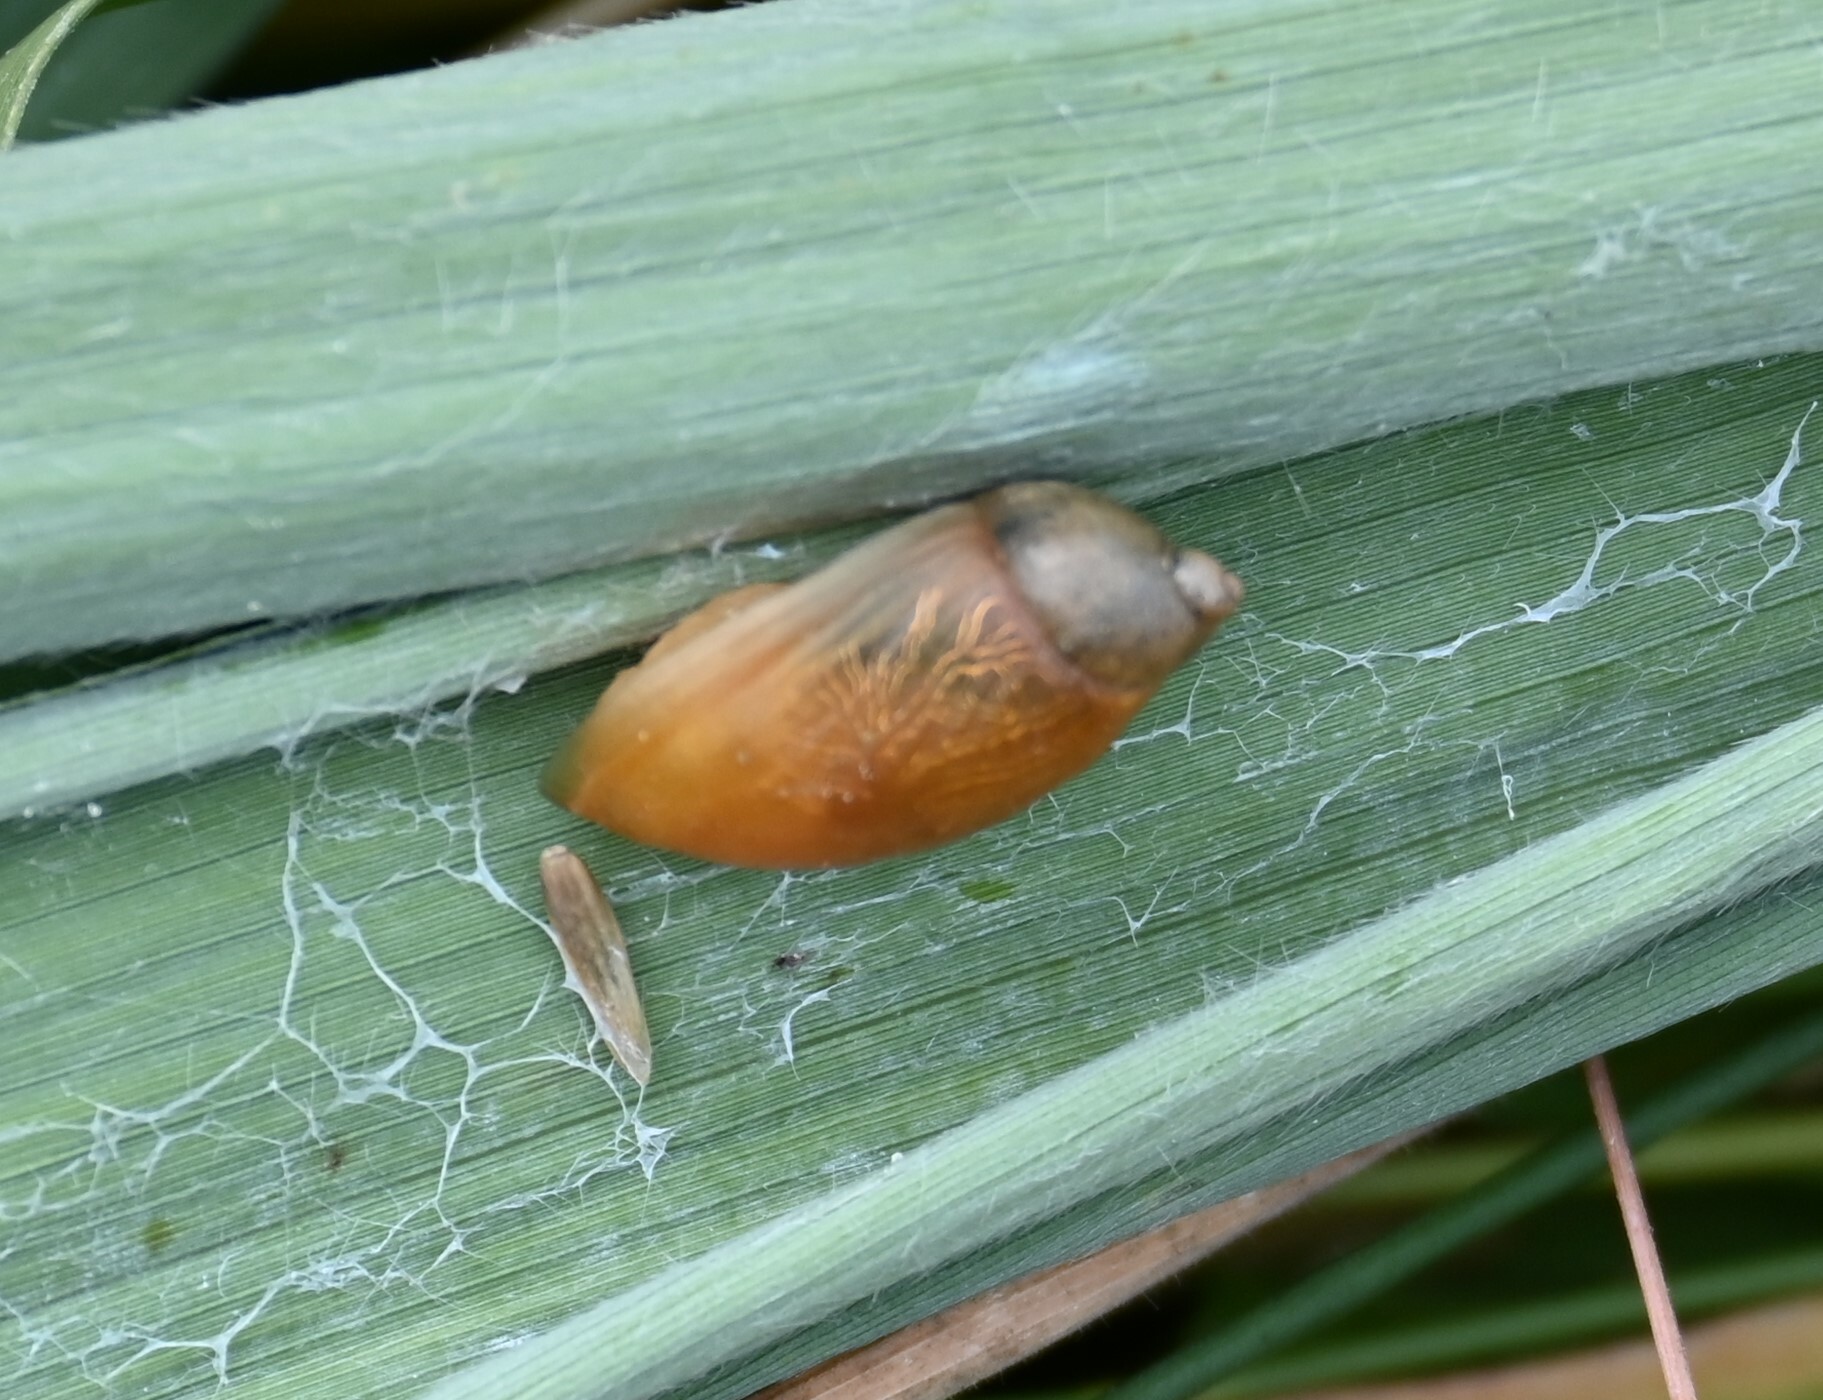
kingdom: Animalia
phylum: Mollusca
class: Gastropoda
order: Stylommatophora
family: Succineidae
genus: Succinea
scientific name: Succinea putris
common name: European ambersnail
